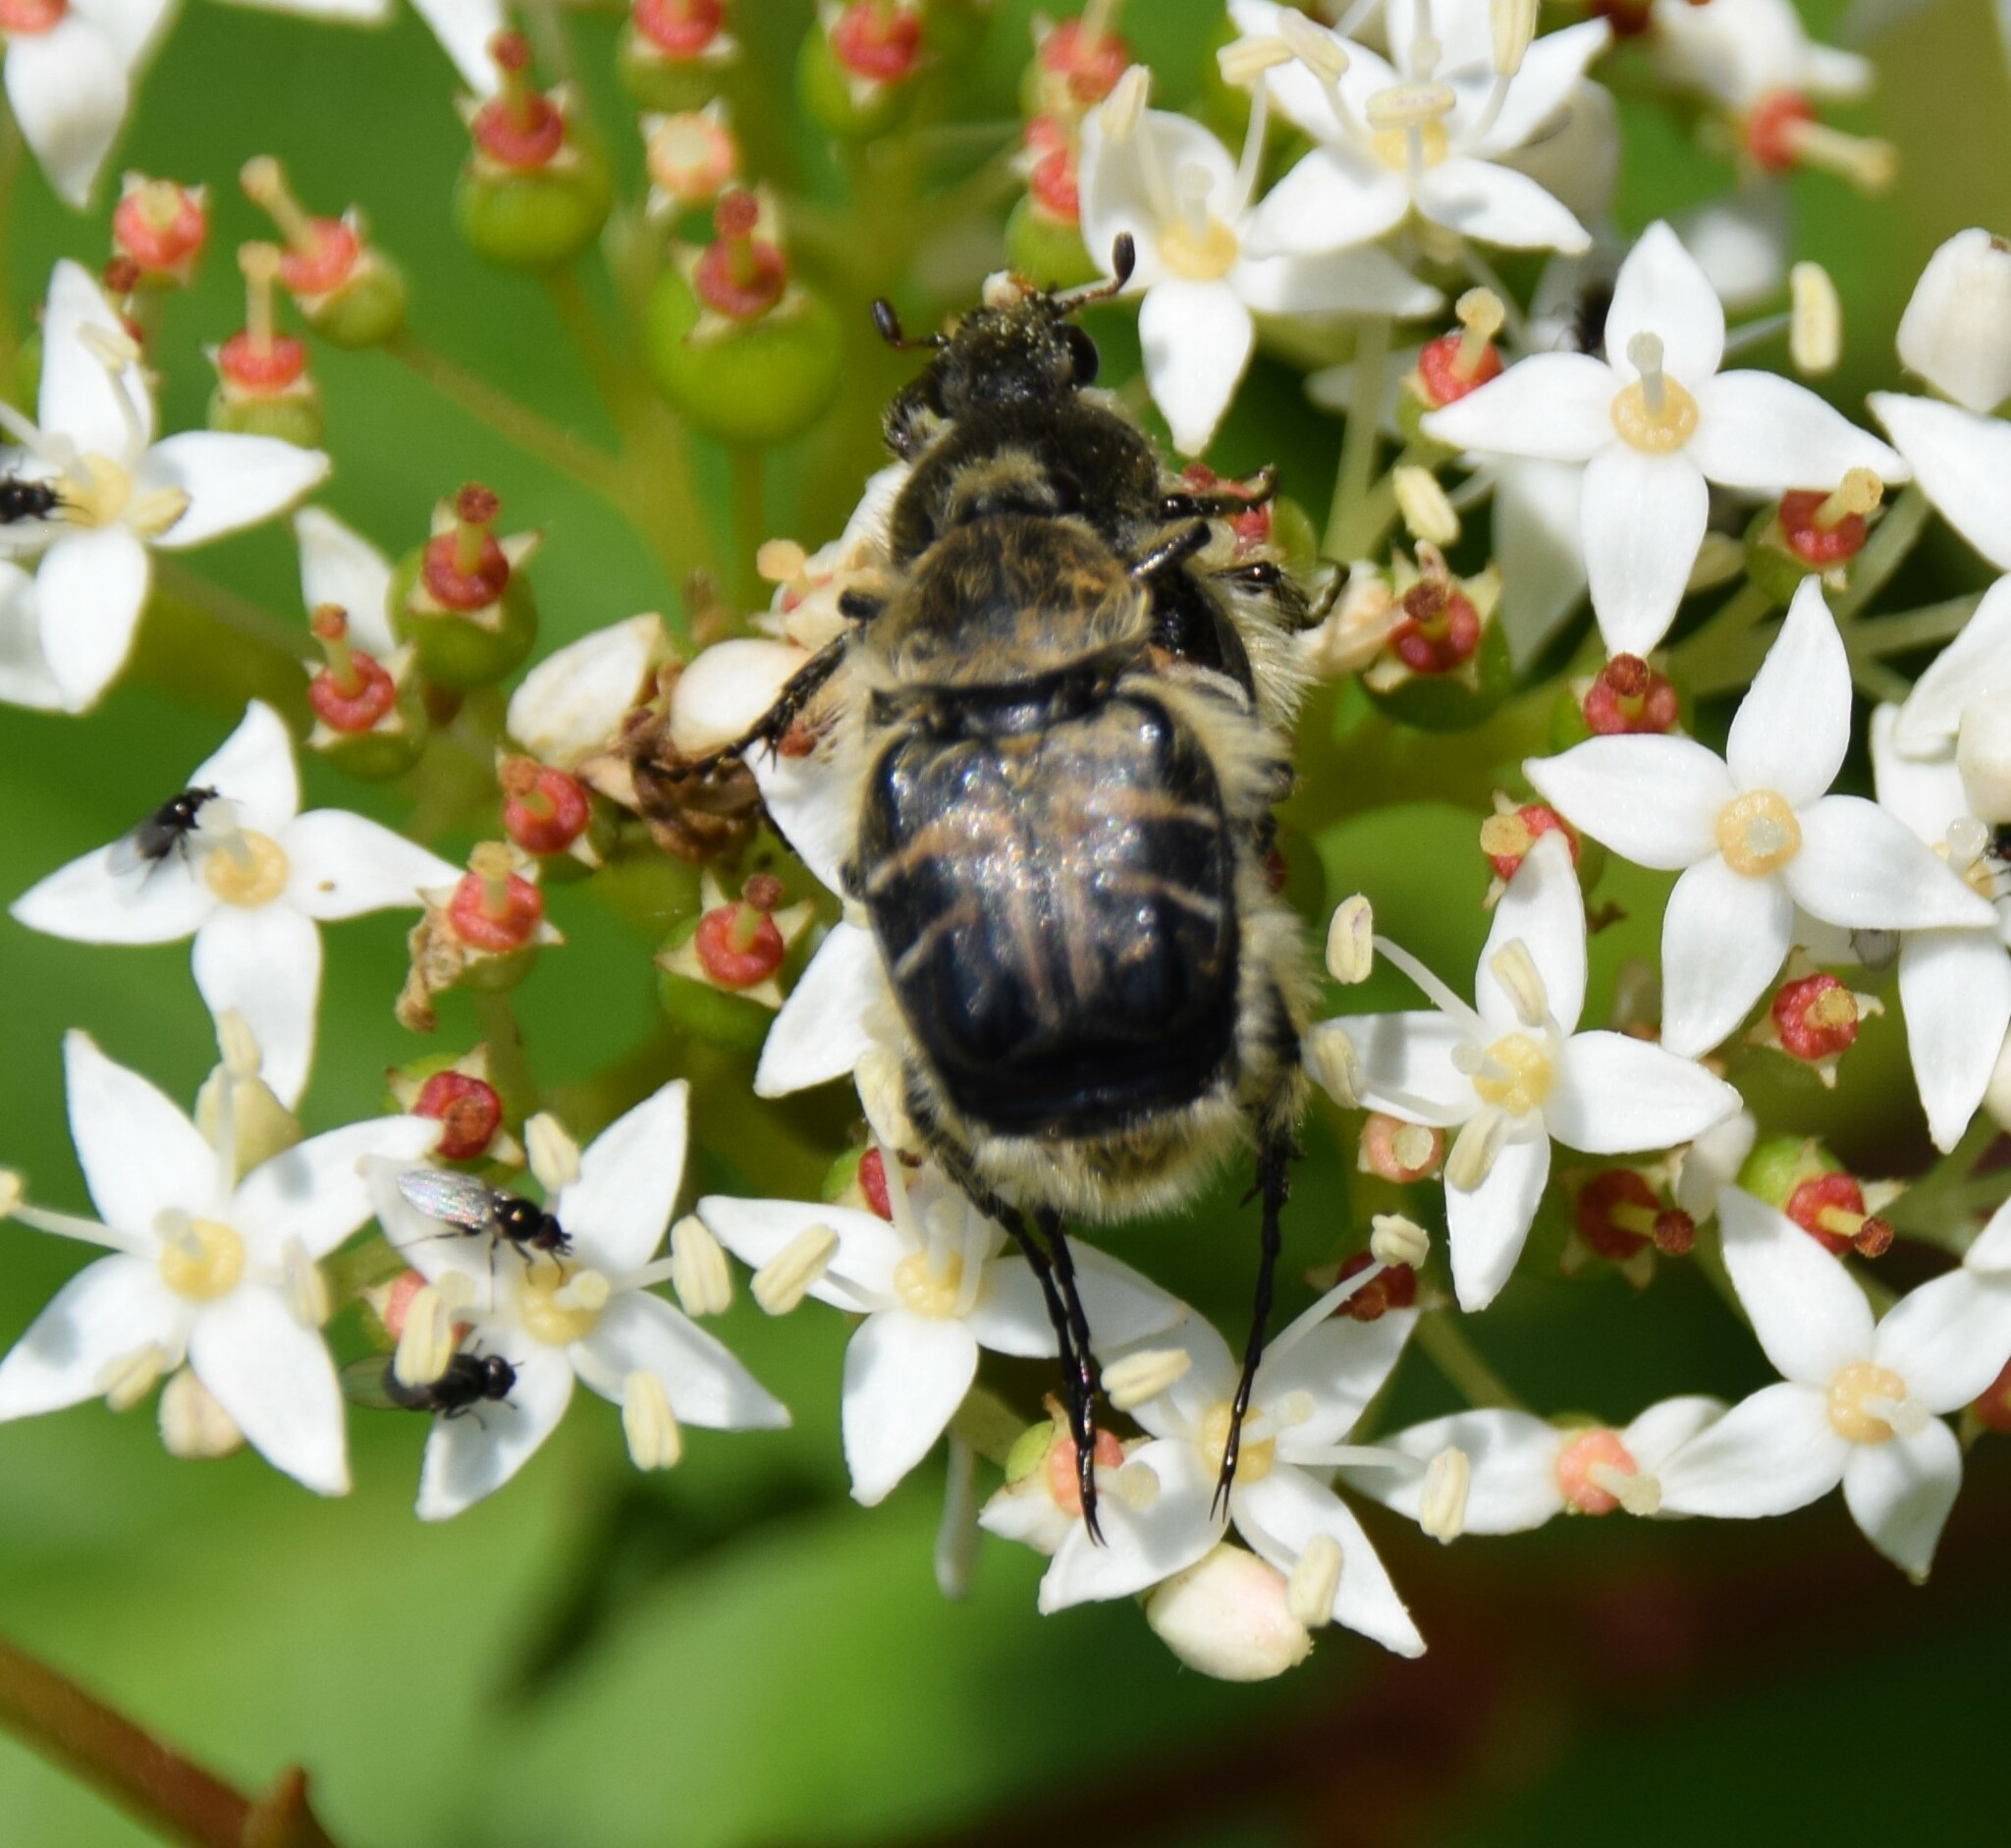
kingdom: Animalia
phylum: Arthropoda
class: Insecta
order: Coleoptera
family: Scarabaeidae
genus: Trichiotinus
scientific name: Trichiotinus assimilis
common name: Bee-mimic beetle
